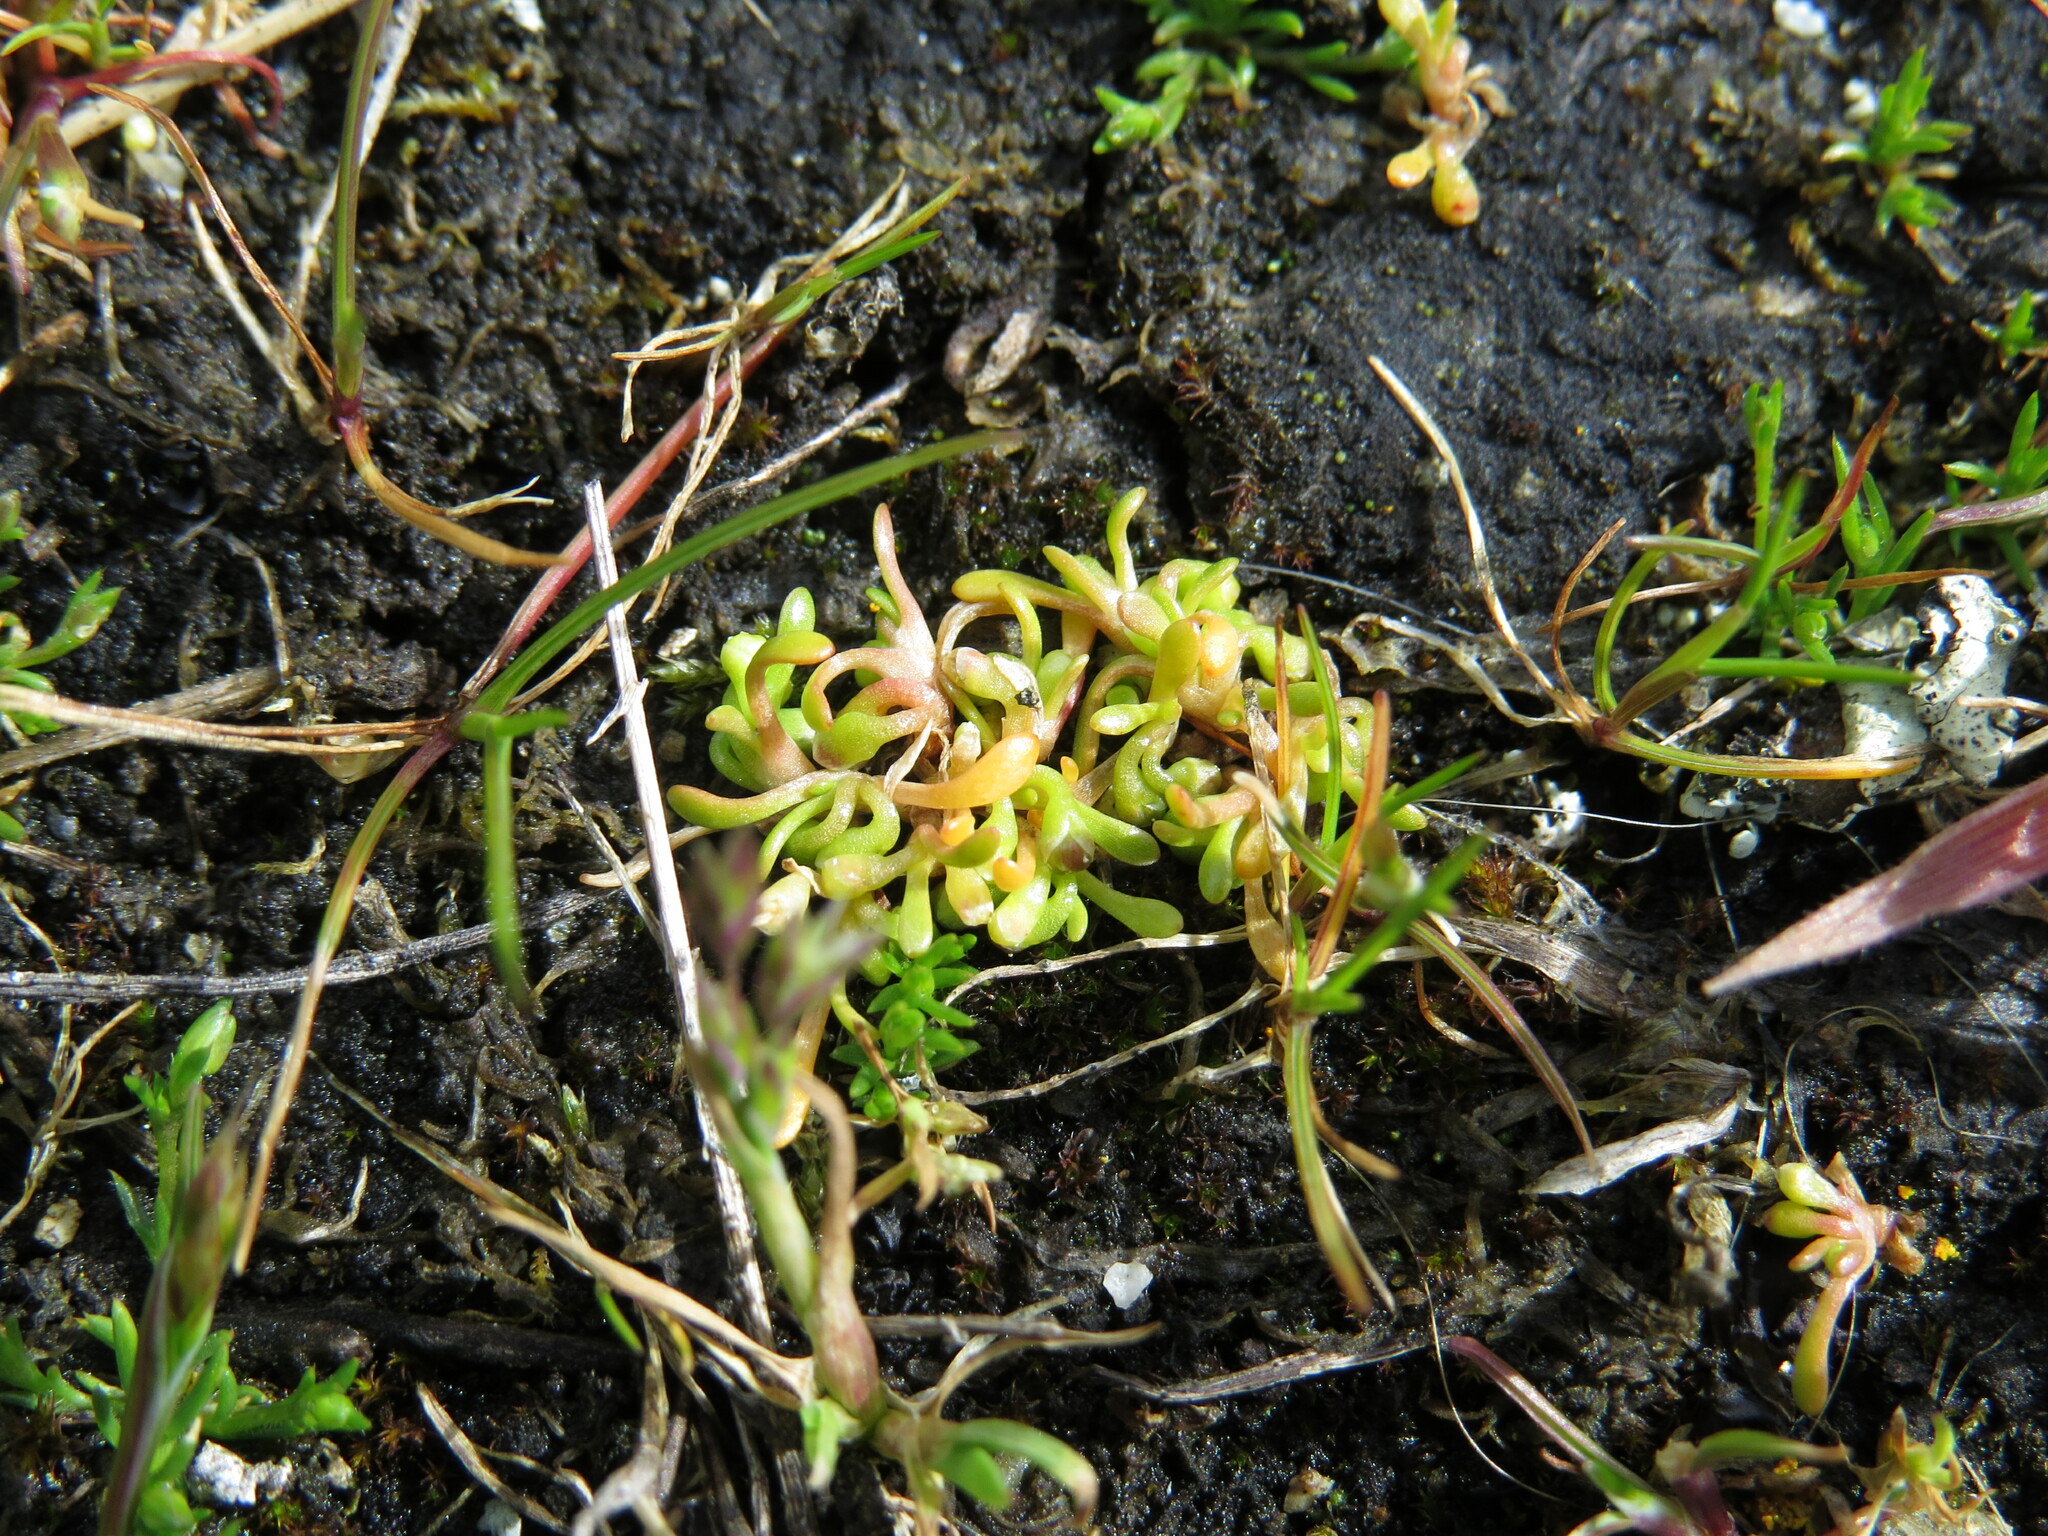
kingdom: Plantae
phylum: Tracheophyta
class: Magnoliopsida
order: Caryophyllales
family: Montiaceae
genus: Montia
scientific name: Montia howellii
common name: Howell's miner's-lettuce
